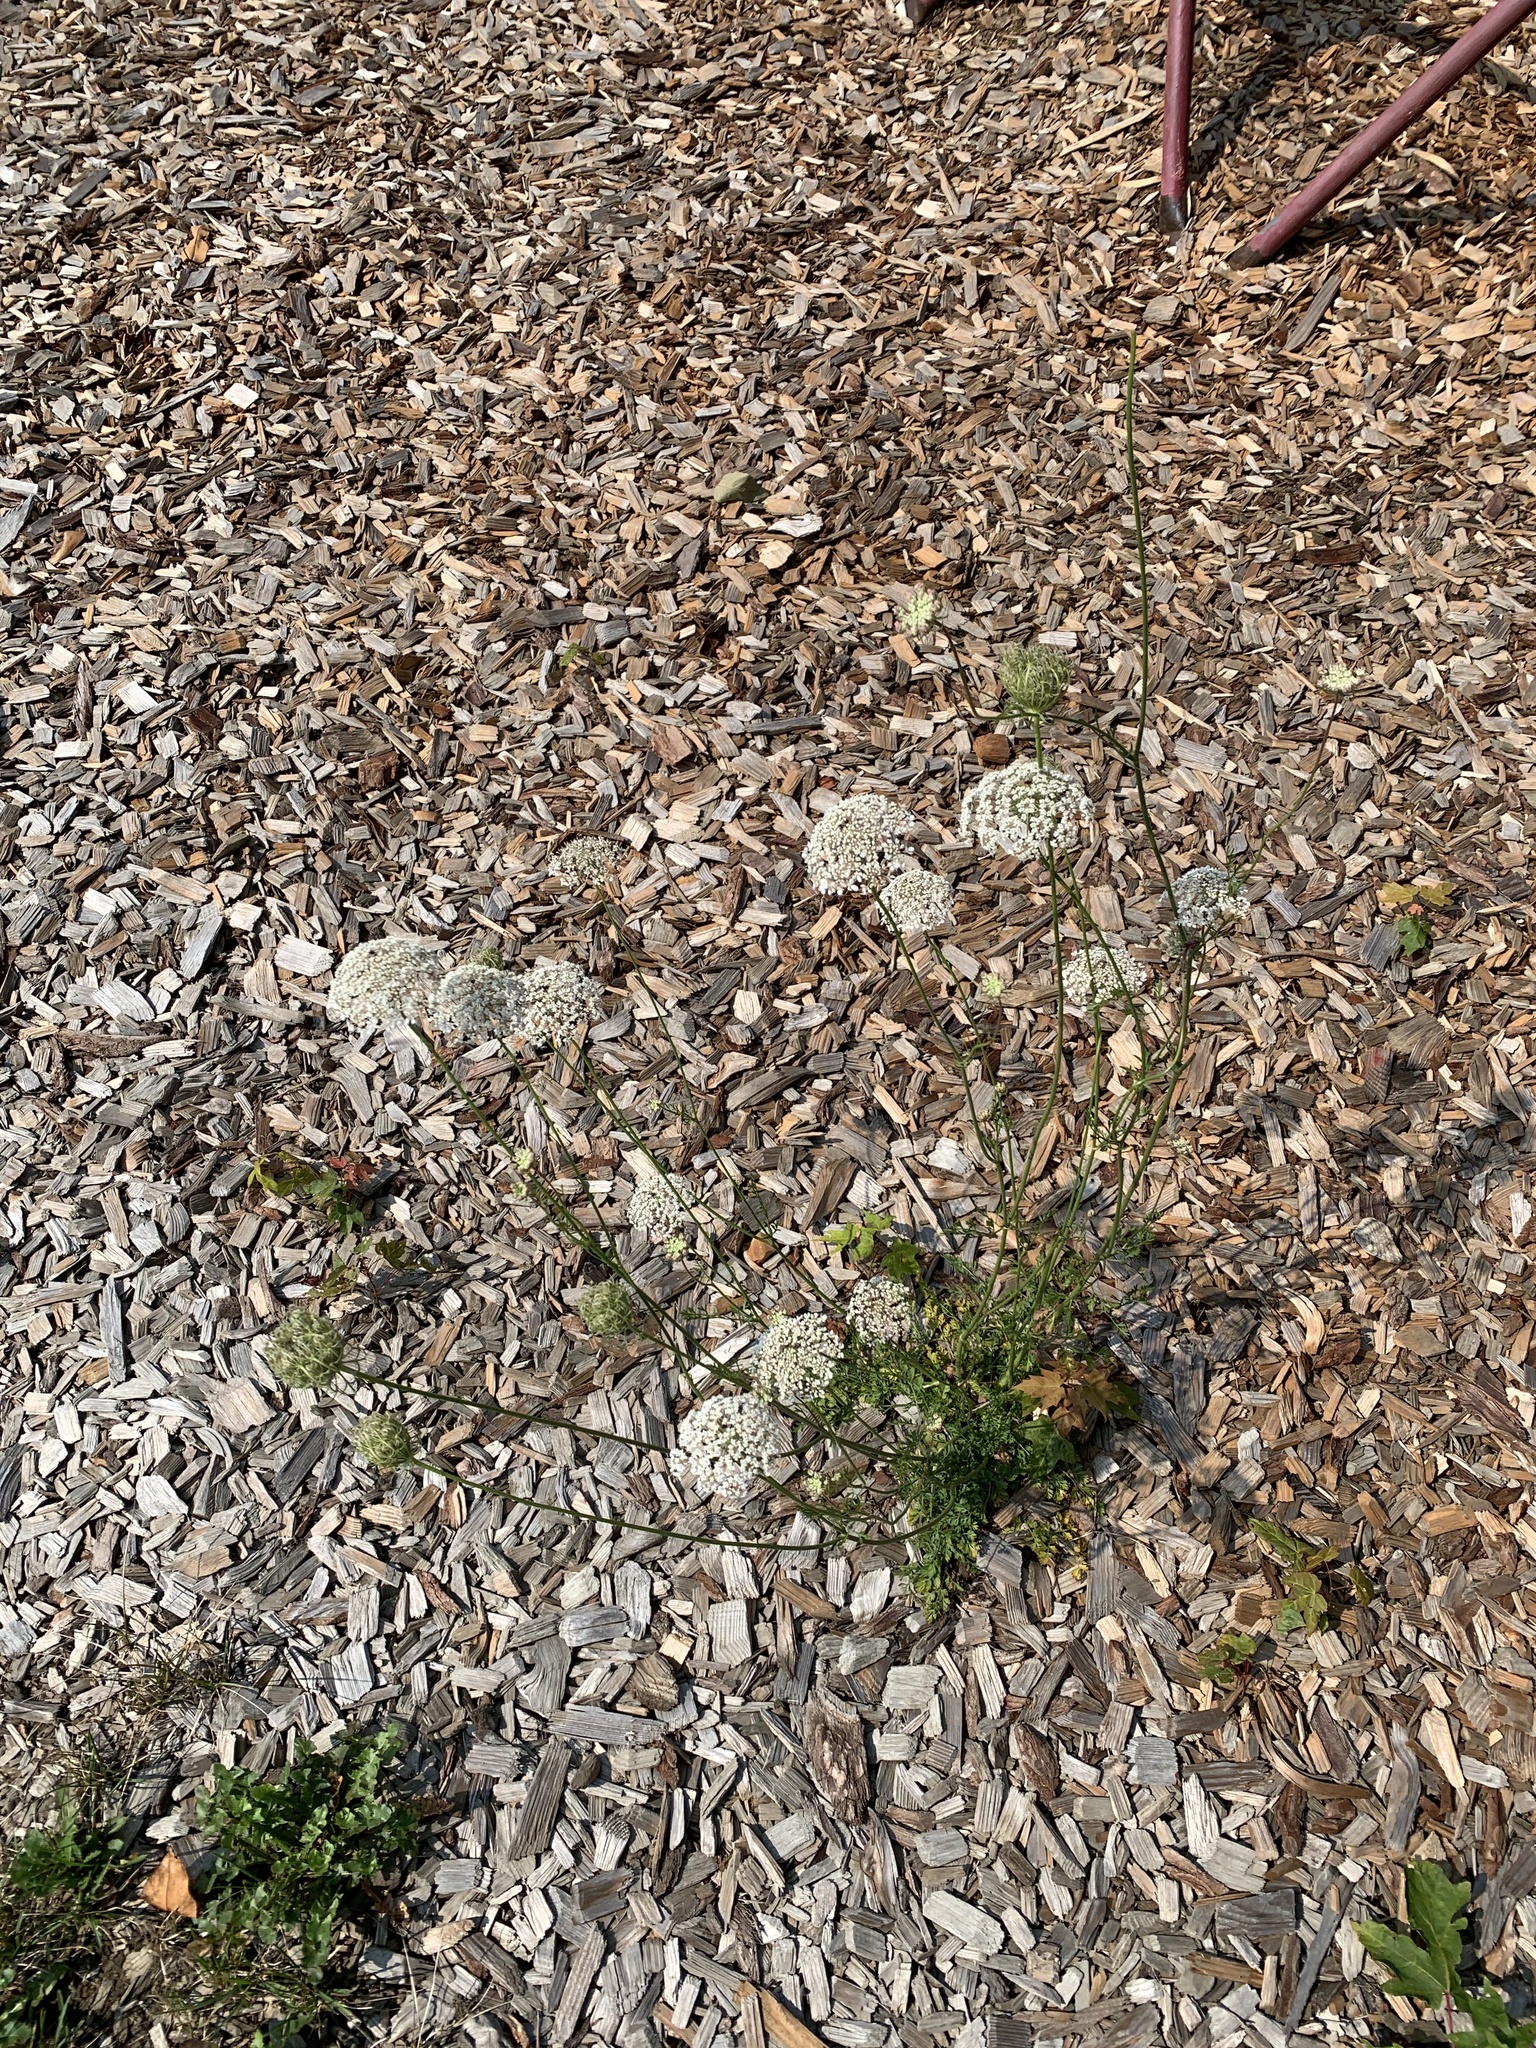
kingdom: Plantae
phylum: Tracheophyta
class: Magnoliopsida
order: Apiales
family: Apiaceae
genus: Daucus
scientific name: Daucus carota
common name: Wild carrot
